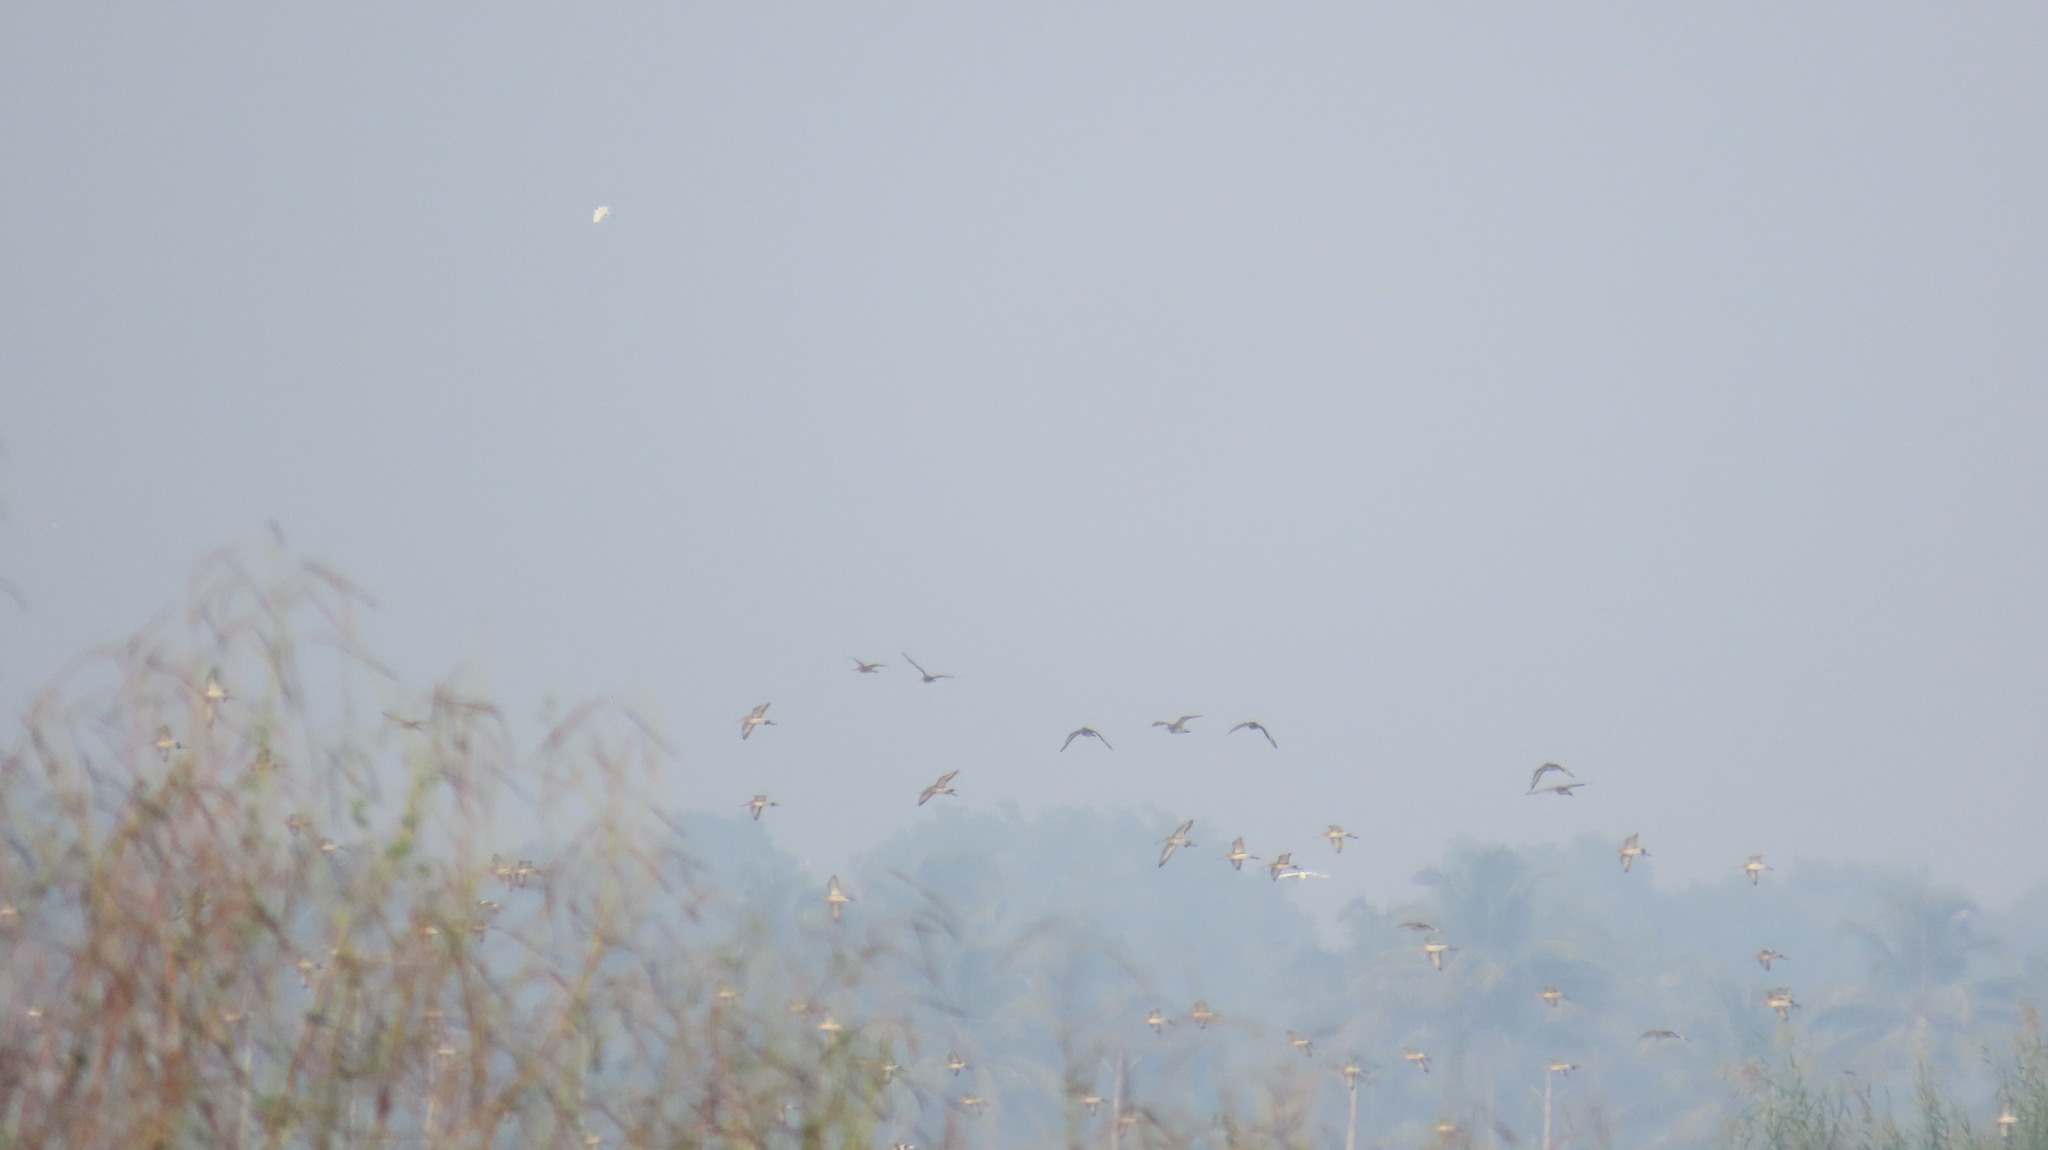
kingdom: Animalia
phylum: Chordata
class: Aves
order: Charadriiformes
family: Scolopacidae
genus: Limosa
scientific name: Limosa limosa
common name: Black-tailed godwit
